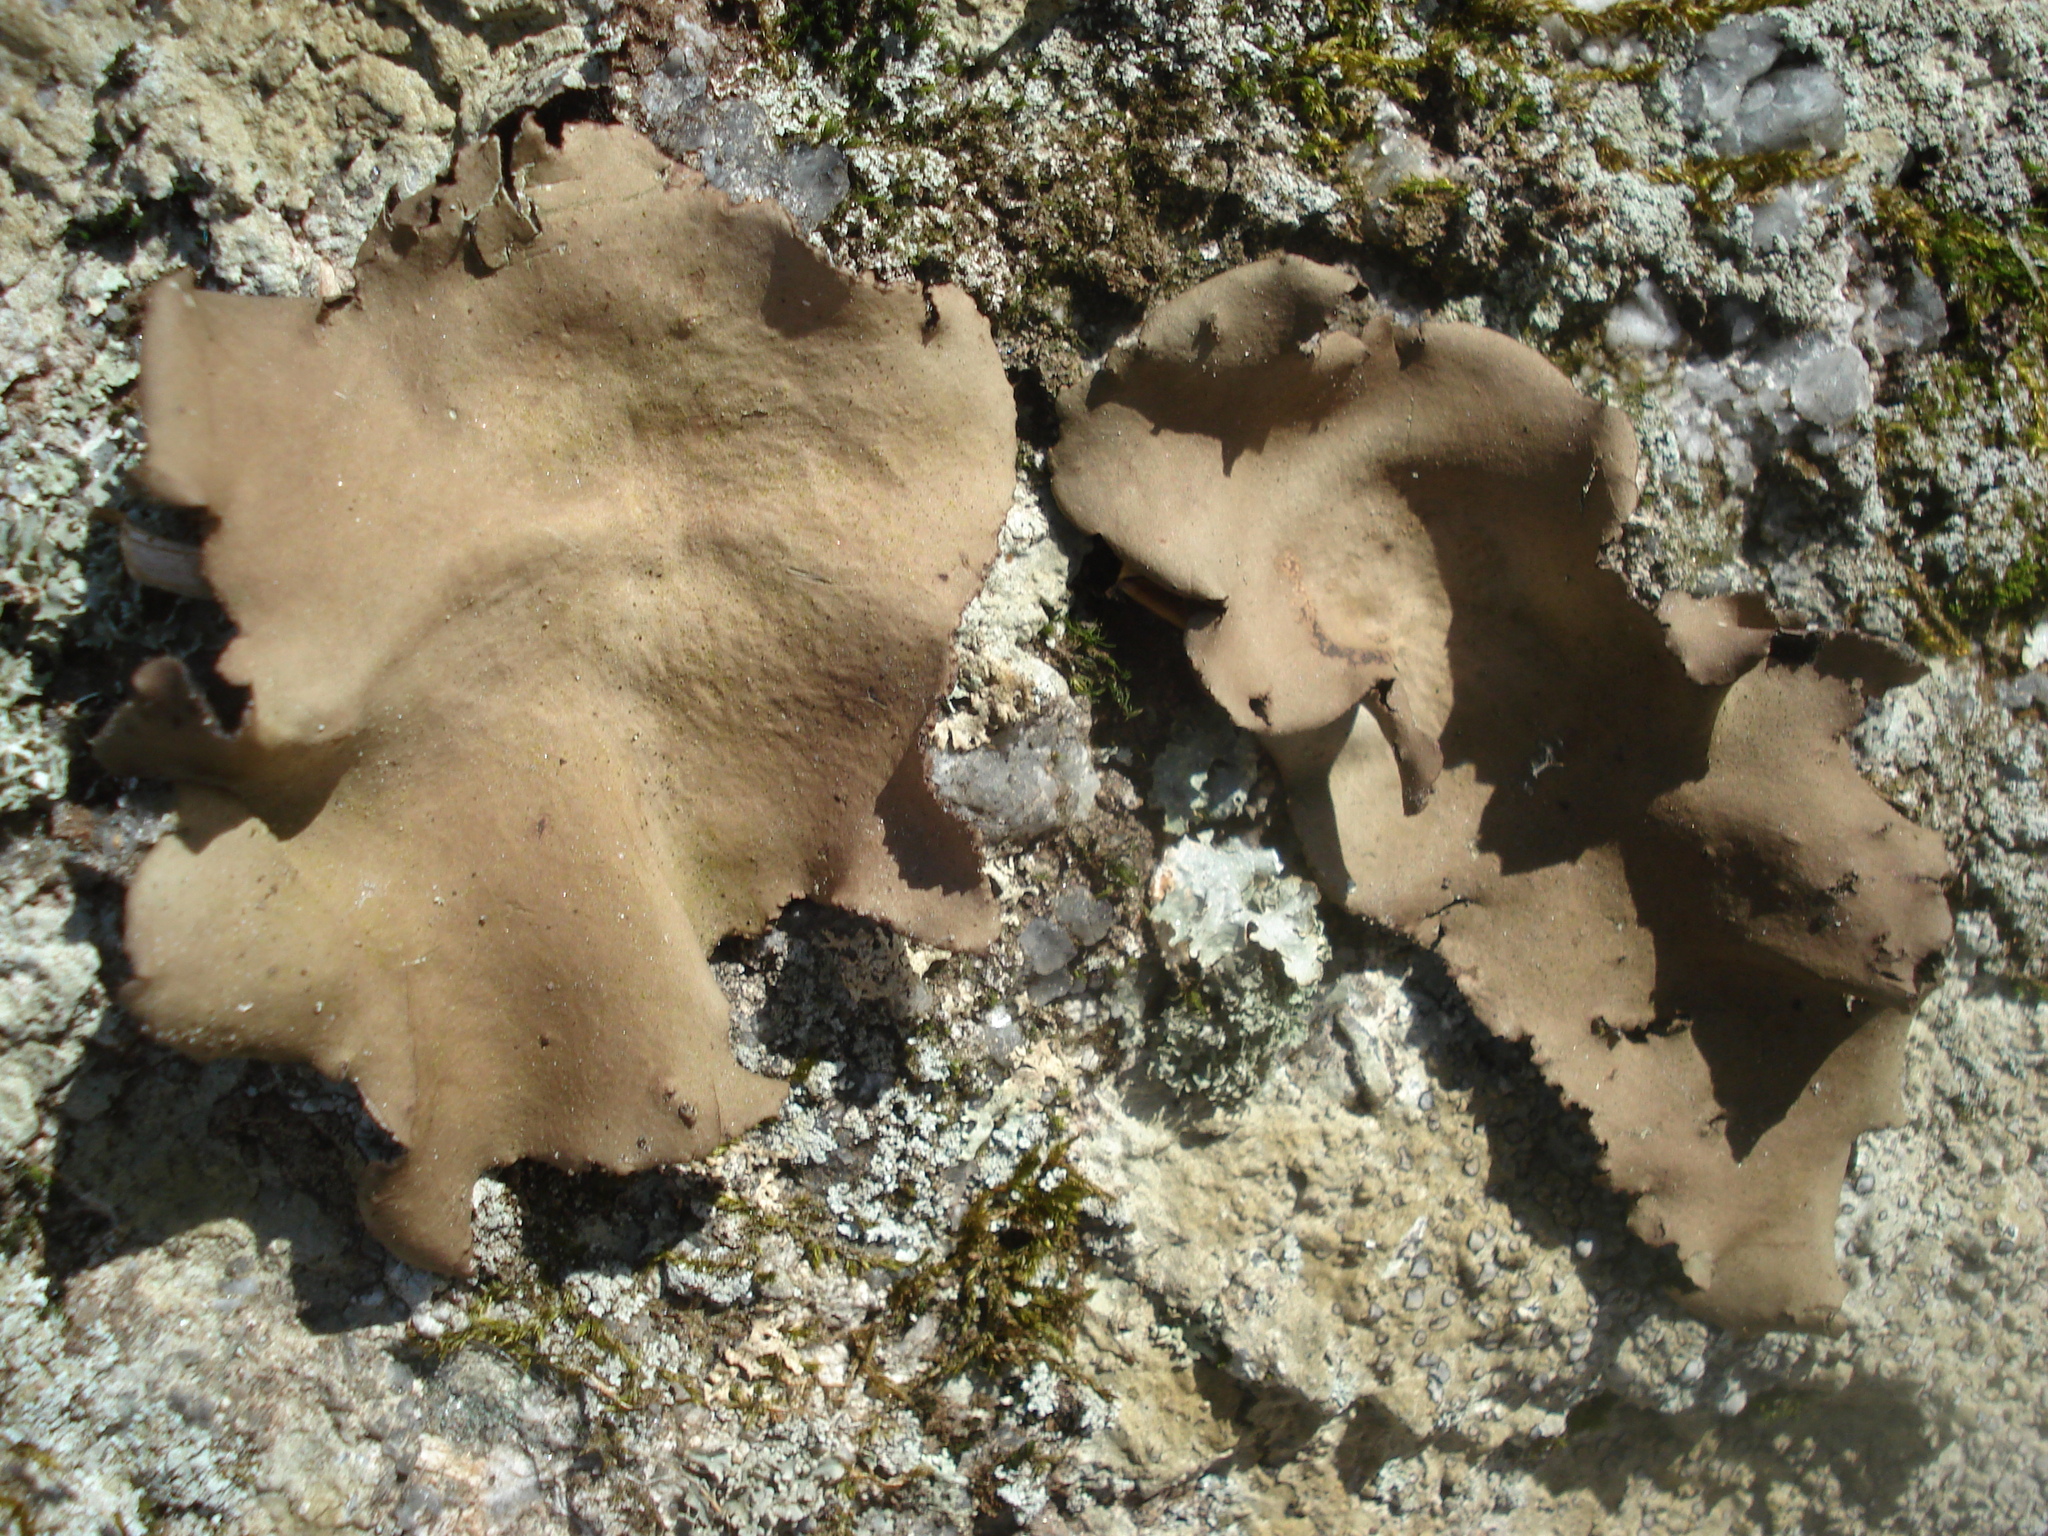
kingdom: Fungi
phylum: Ascomycota
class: Lecanoromycetes
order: Umbilicariales
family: Umbilicariaceae
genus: Umbilicaria
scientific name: Umbilicaria mammulata
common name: Smooth rock tripe
